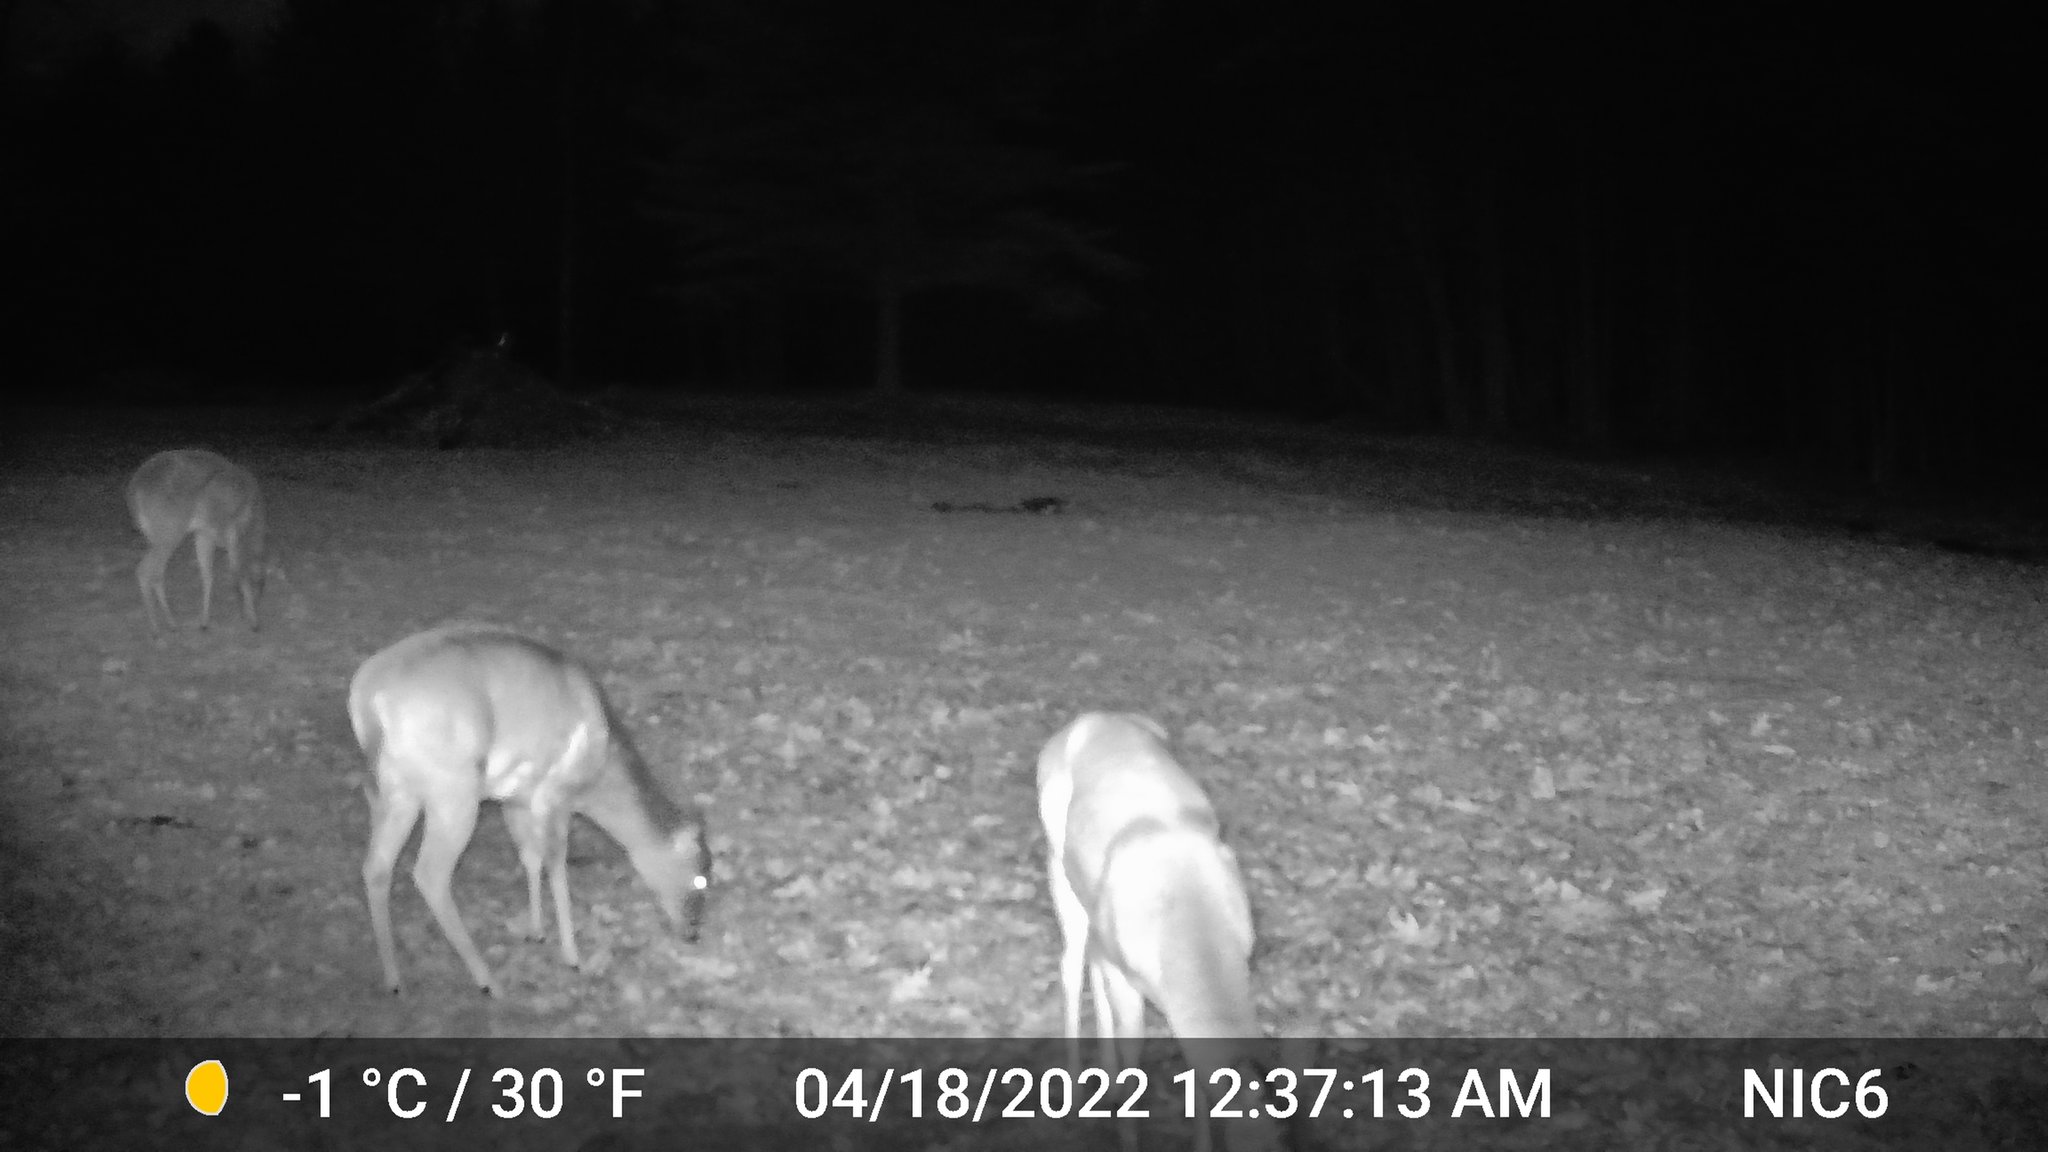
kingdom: Animalia
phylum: Chordata
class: Mammalia
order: Artiodactyla
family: Cervidae
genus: Odocoileus
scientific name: Odocoileus virginianus
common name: White-tailed deer
